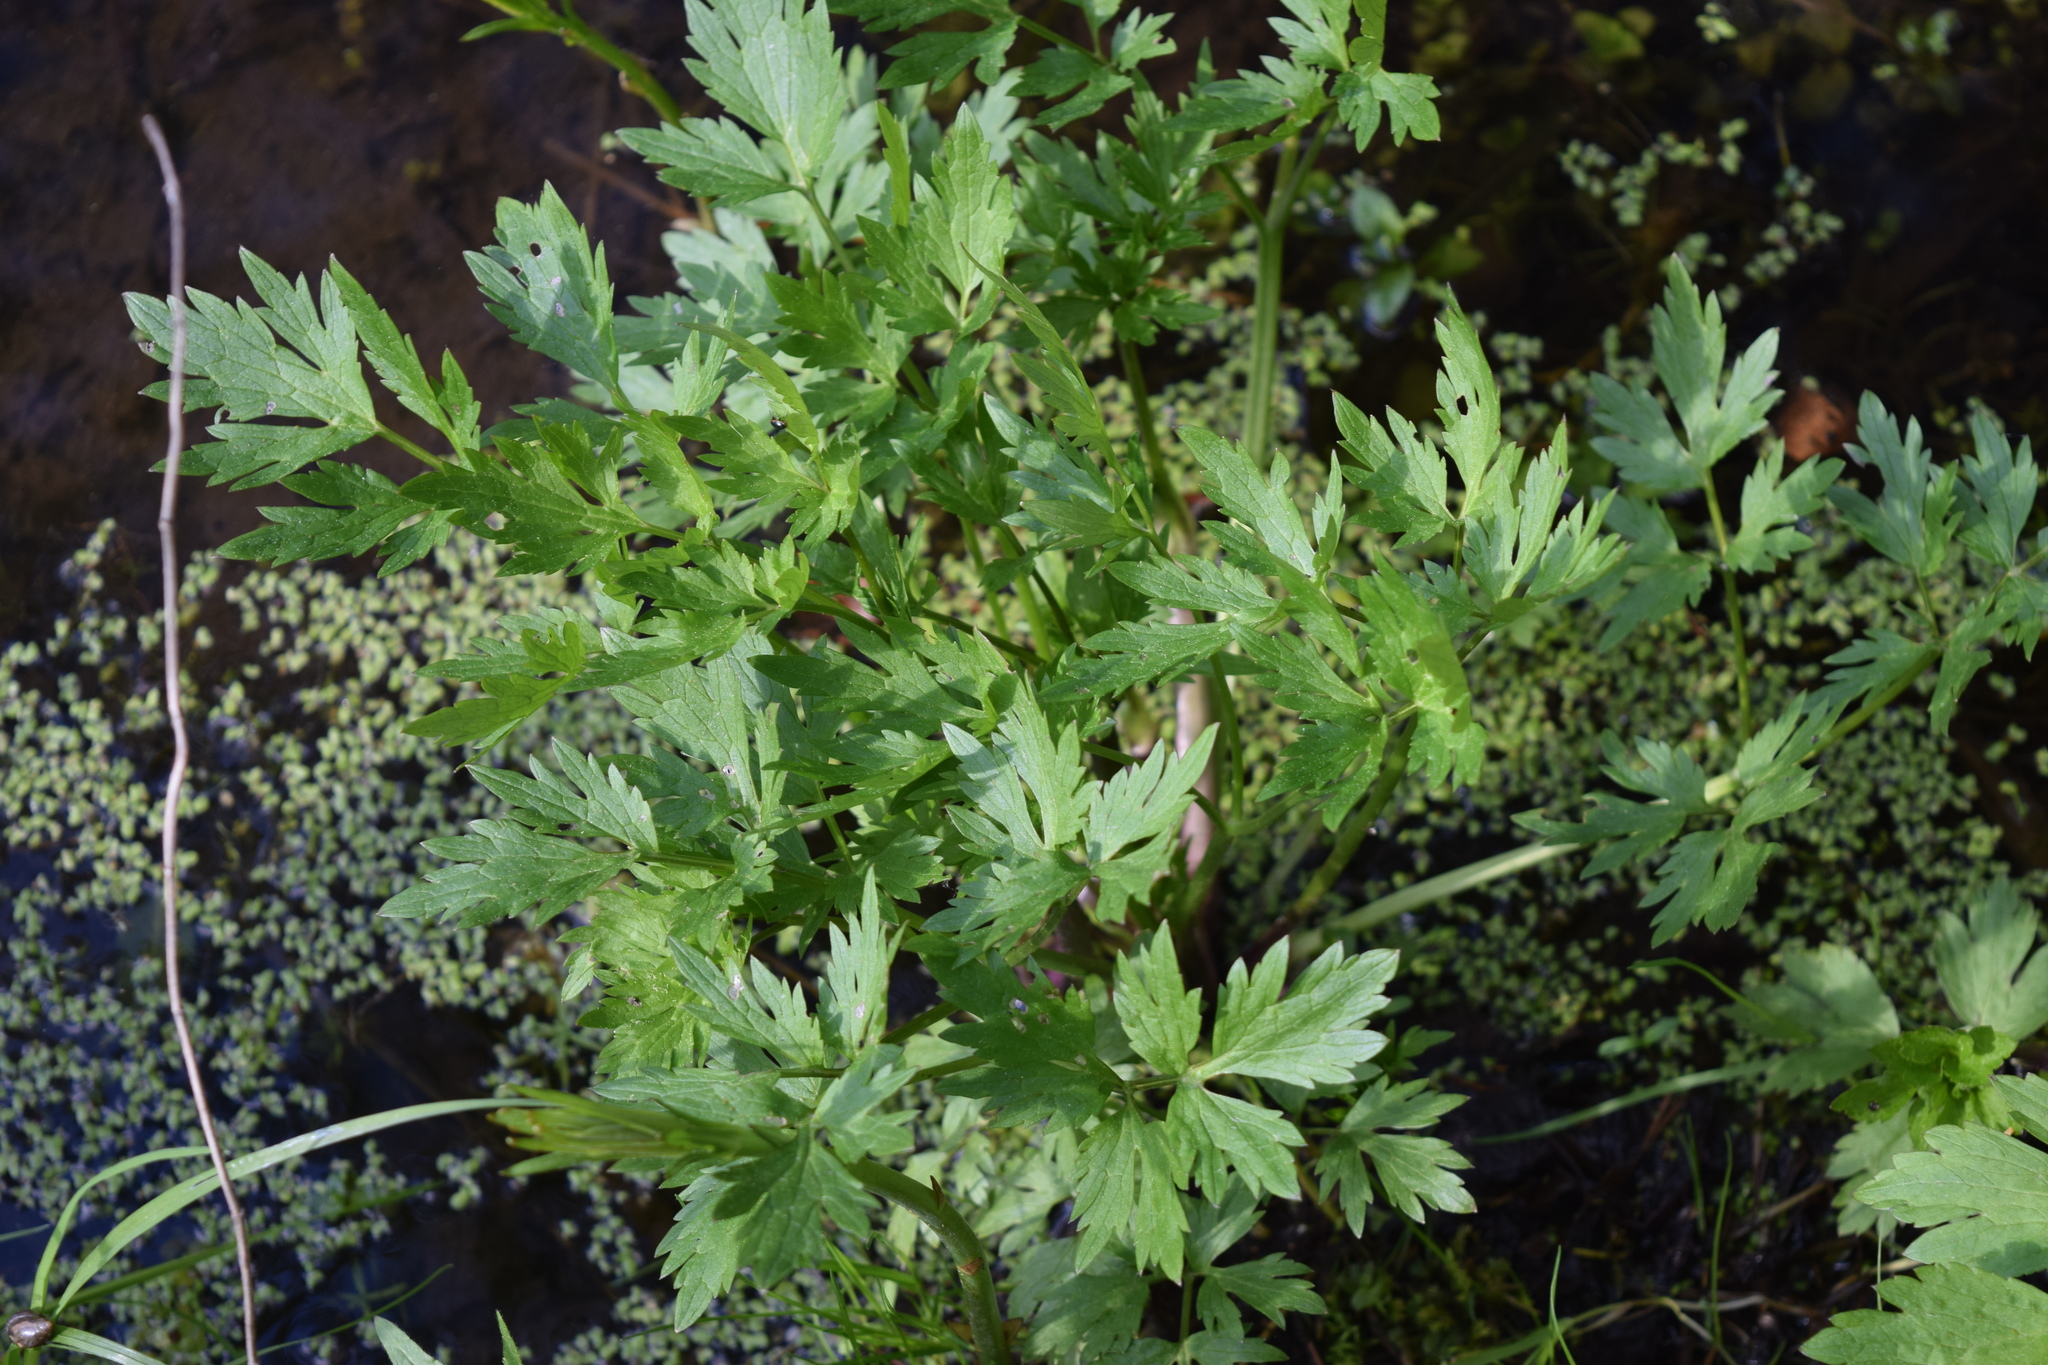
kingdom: Plantae
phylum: Tracheophyta
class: Magnoliopsida
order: Ranunculales
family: Ranunculaceae
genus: Ranunculus
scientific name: Ranunculus repens
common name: Creeping buttercup
